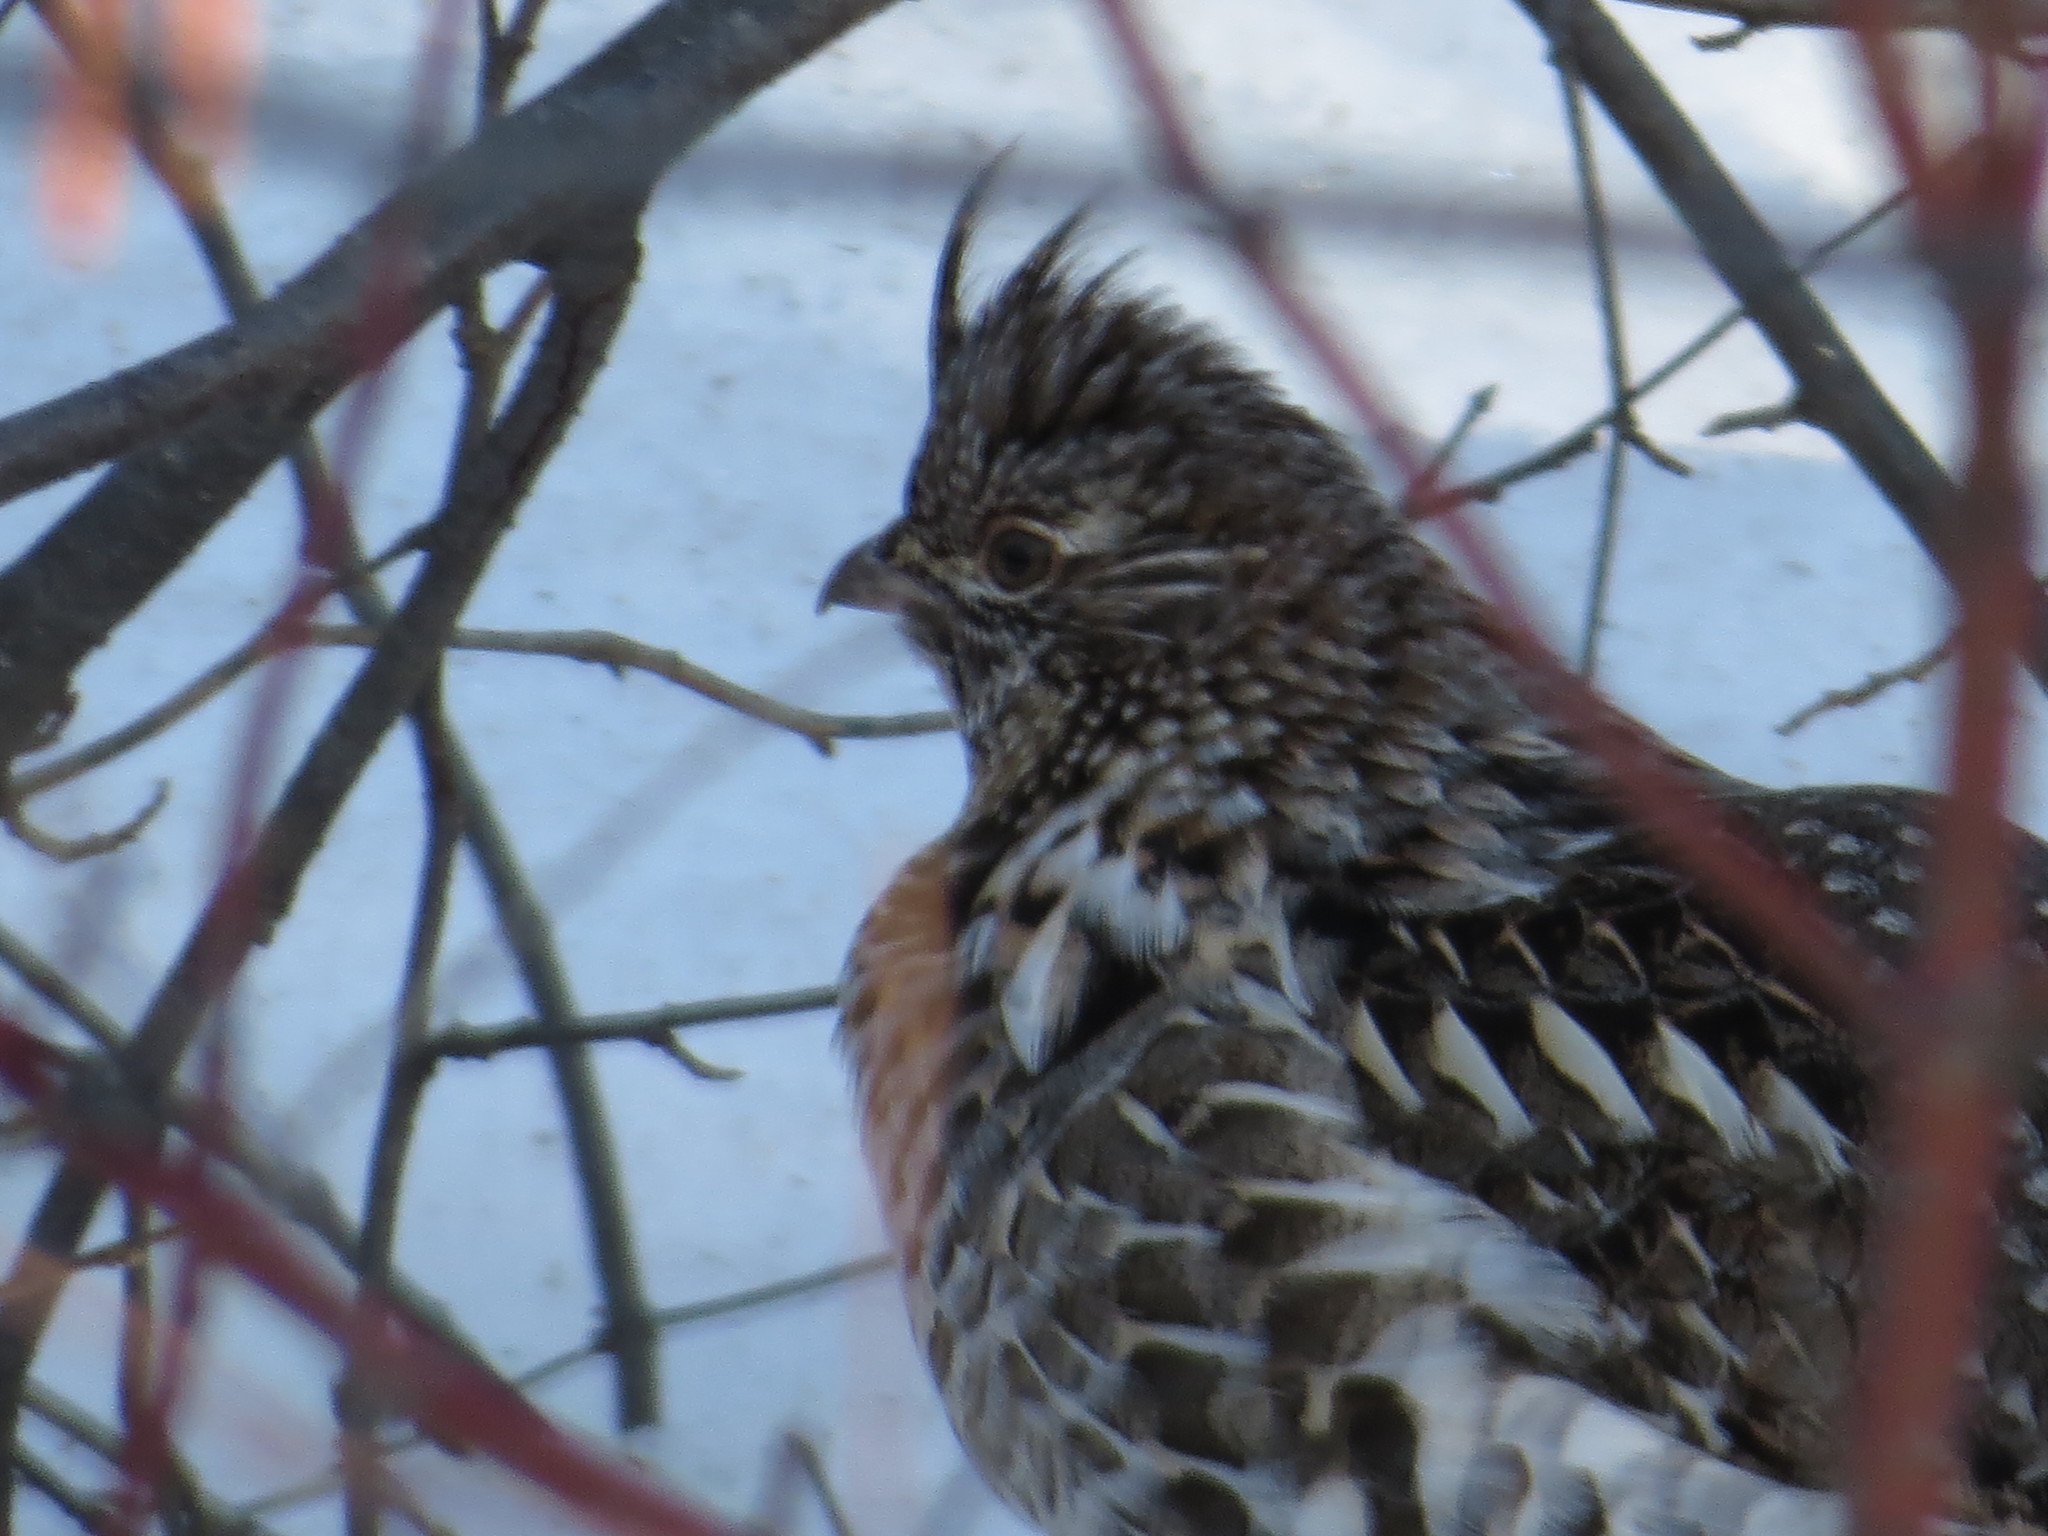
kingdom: Animalia
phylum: Chordata
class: Aves
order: Galliformes
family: Phasianidae
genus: Bonasa
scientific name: Bonasa umbellus
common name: Ruffed grouse
